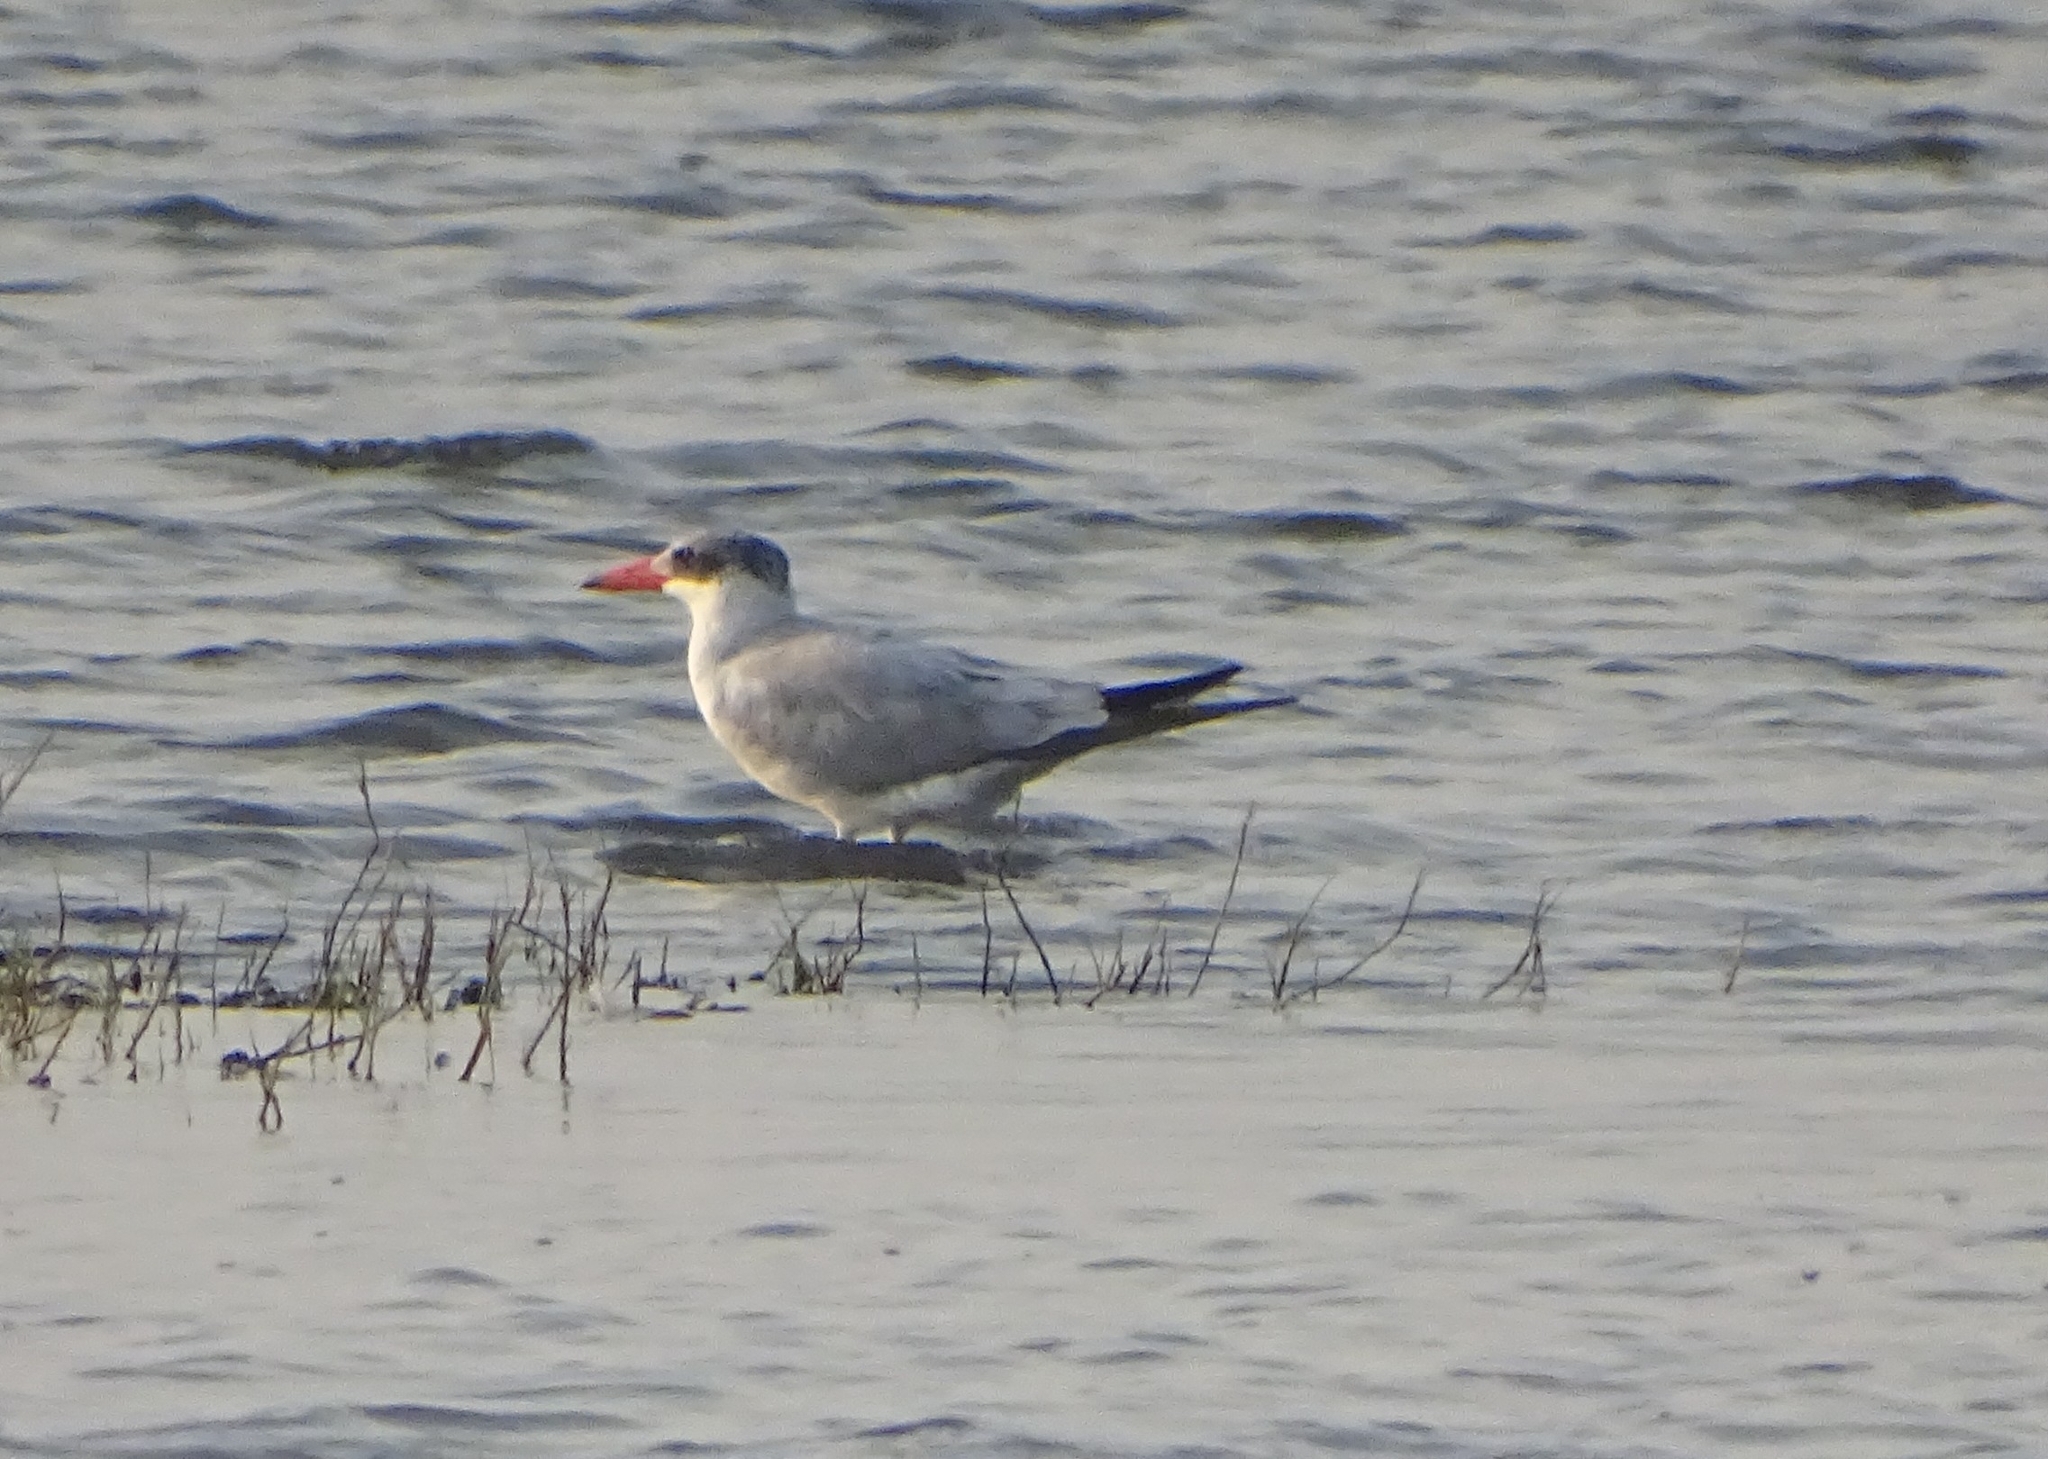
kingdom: Animalia
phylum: Chordata
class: Aves
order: Charadriiformes
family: Laridae
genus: Hydroprogne
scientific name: Hydroprogne caspia
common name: Caspian tern
